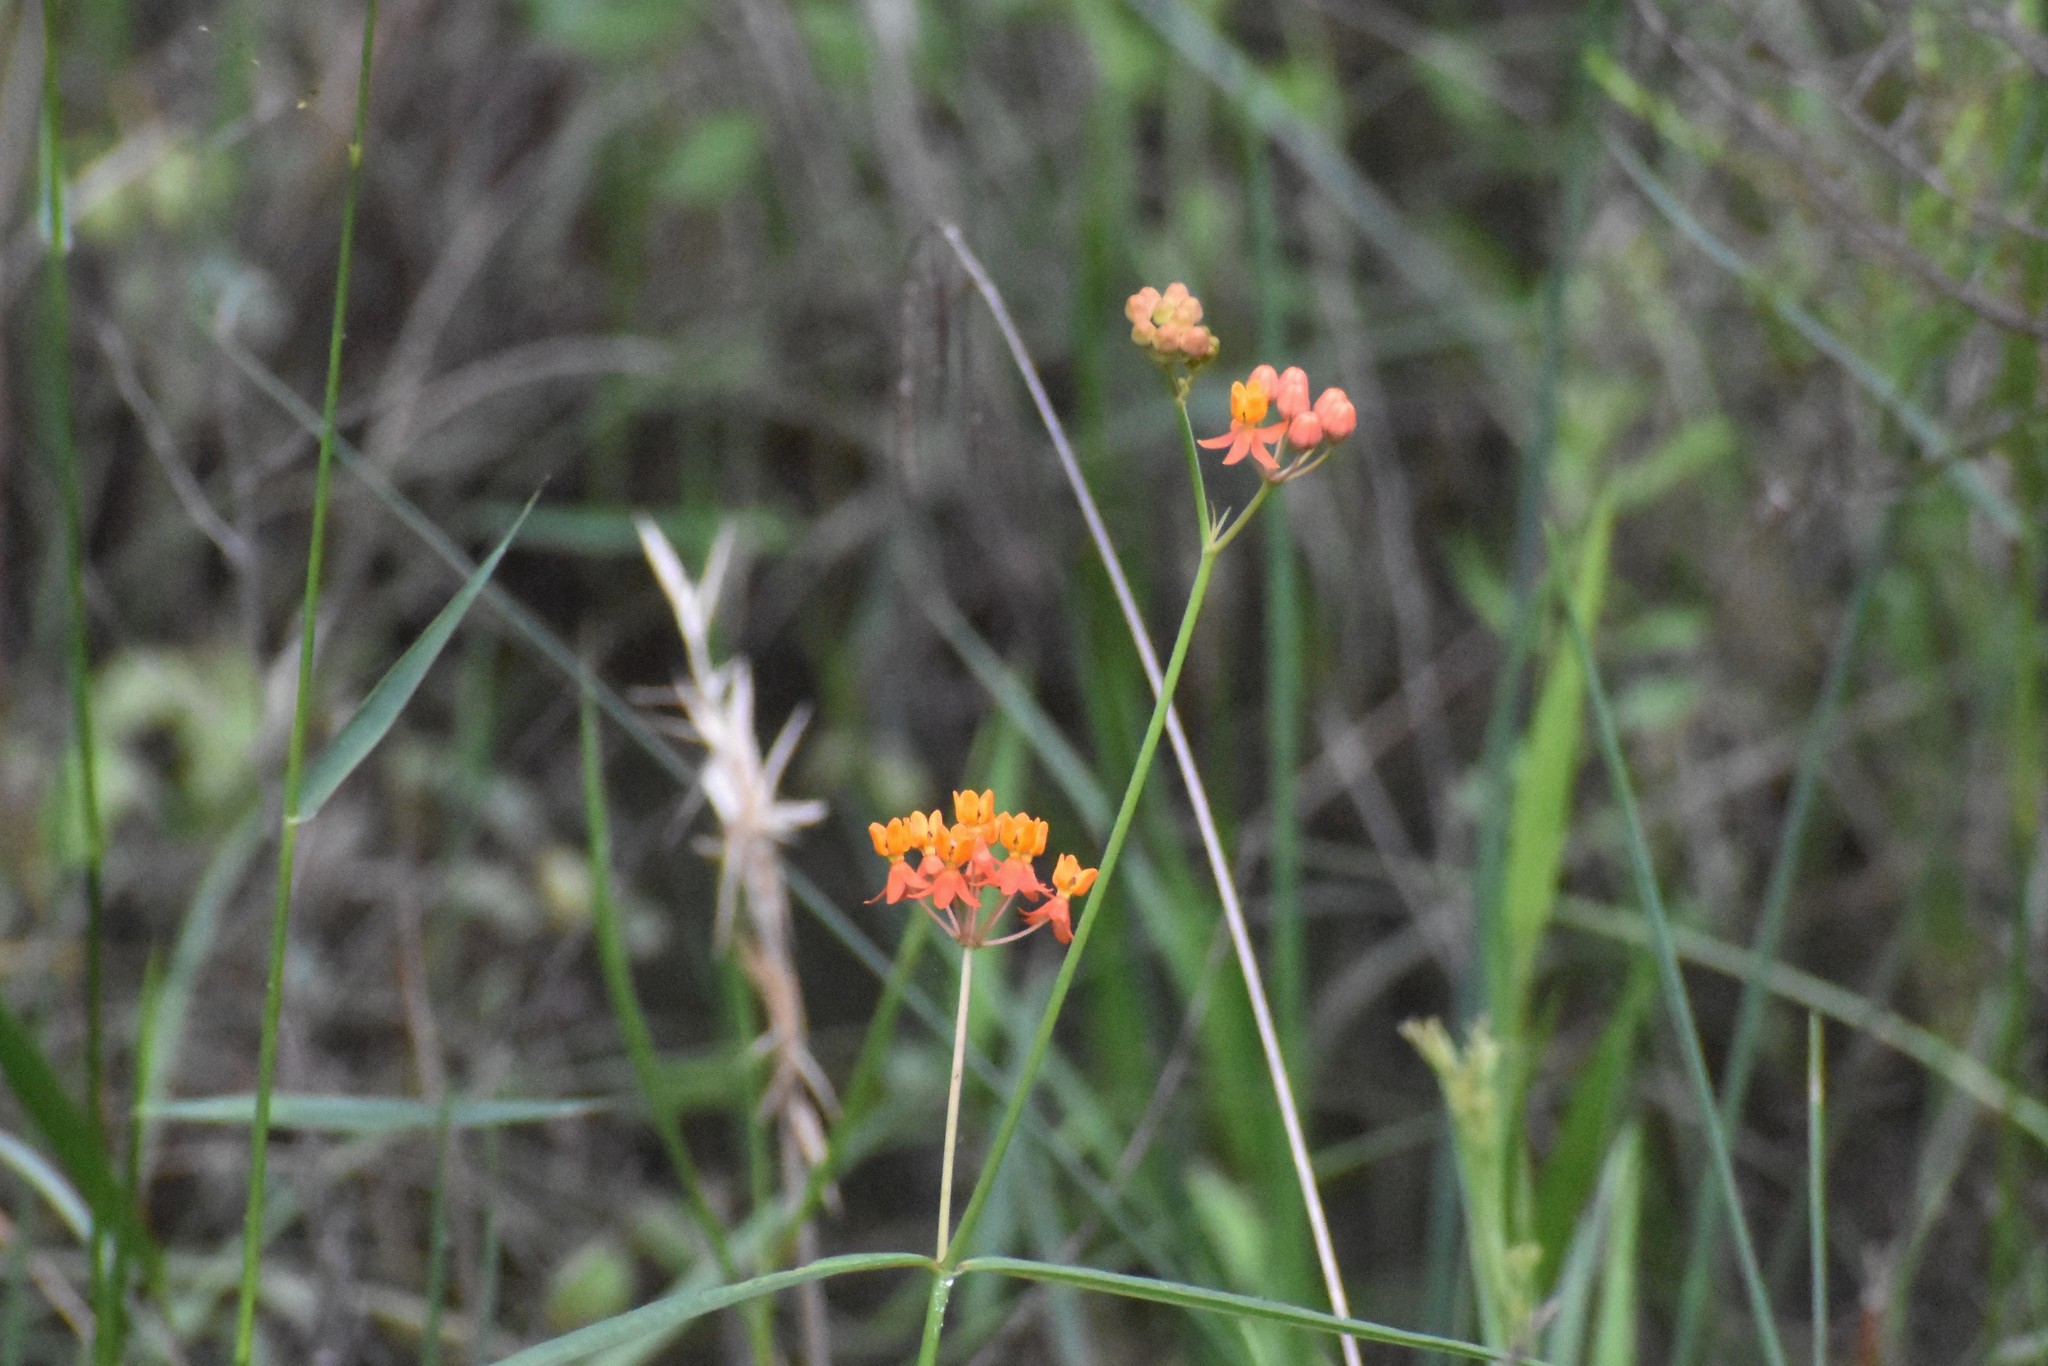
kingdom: Plantae
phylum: Tracheophyta
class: Magnoliopsida
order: Gentianales
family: Apocynaceae
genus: Asclepias
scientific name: Asclepias lanceolata
